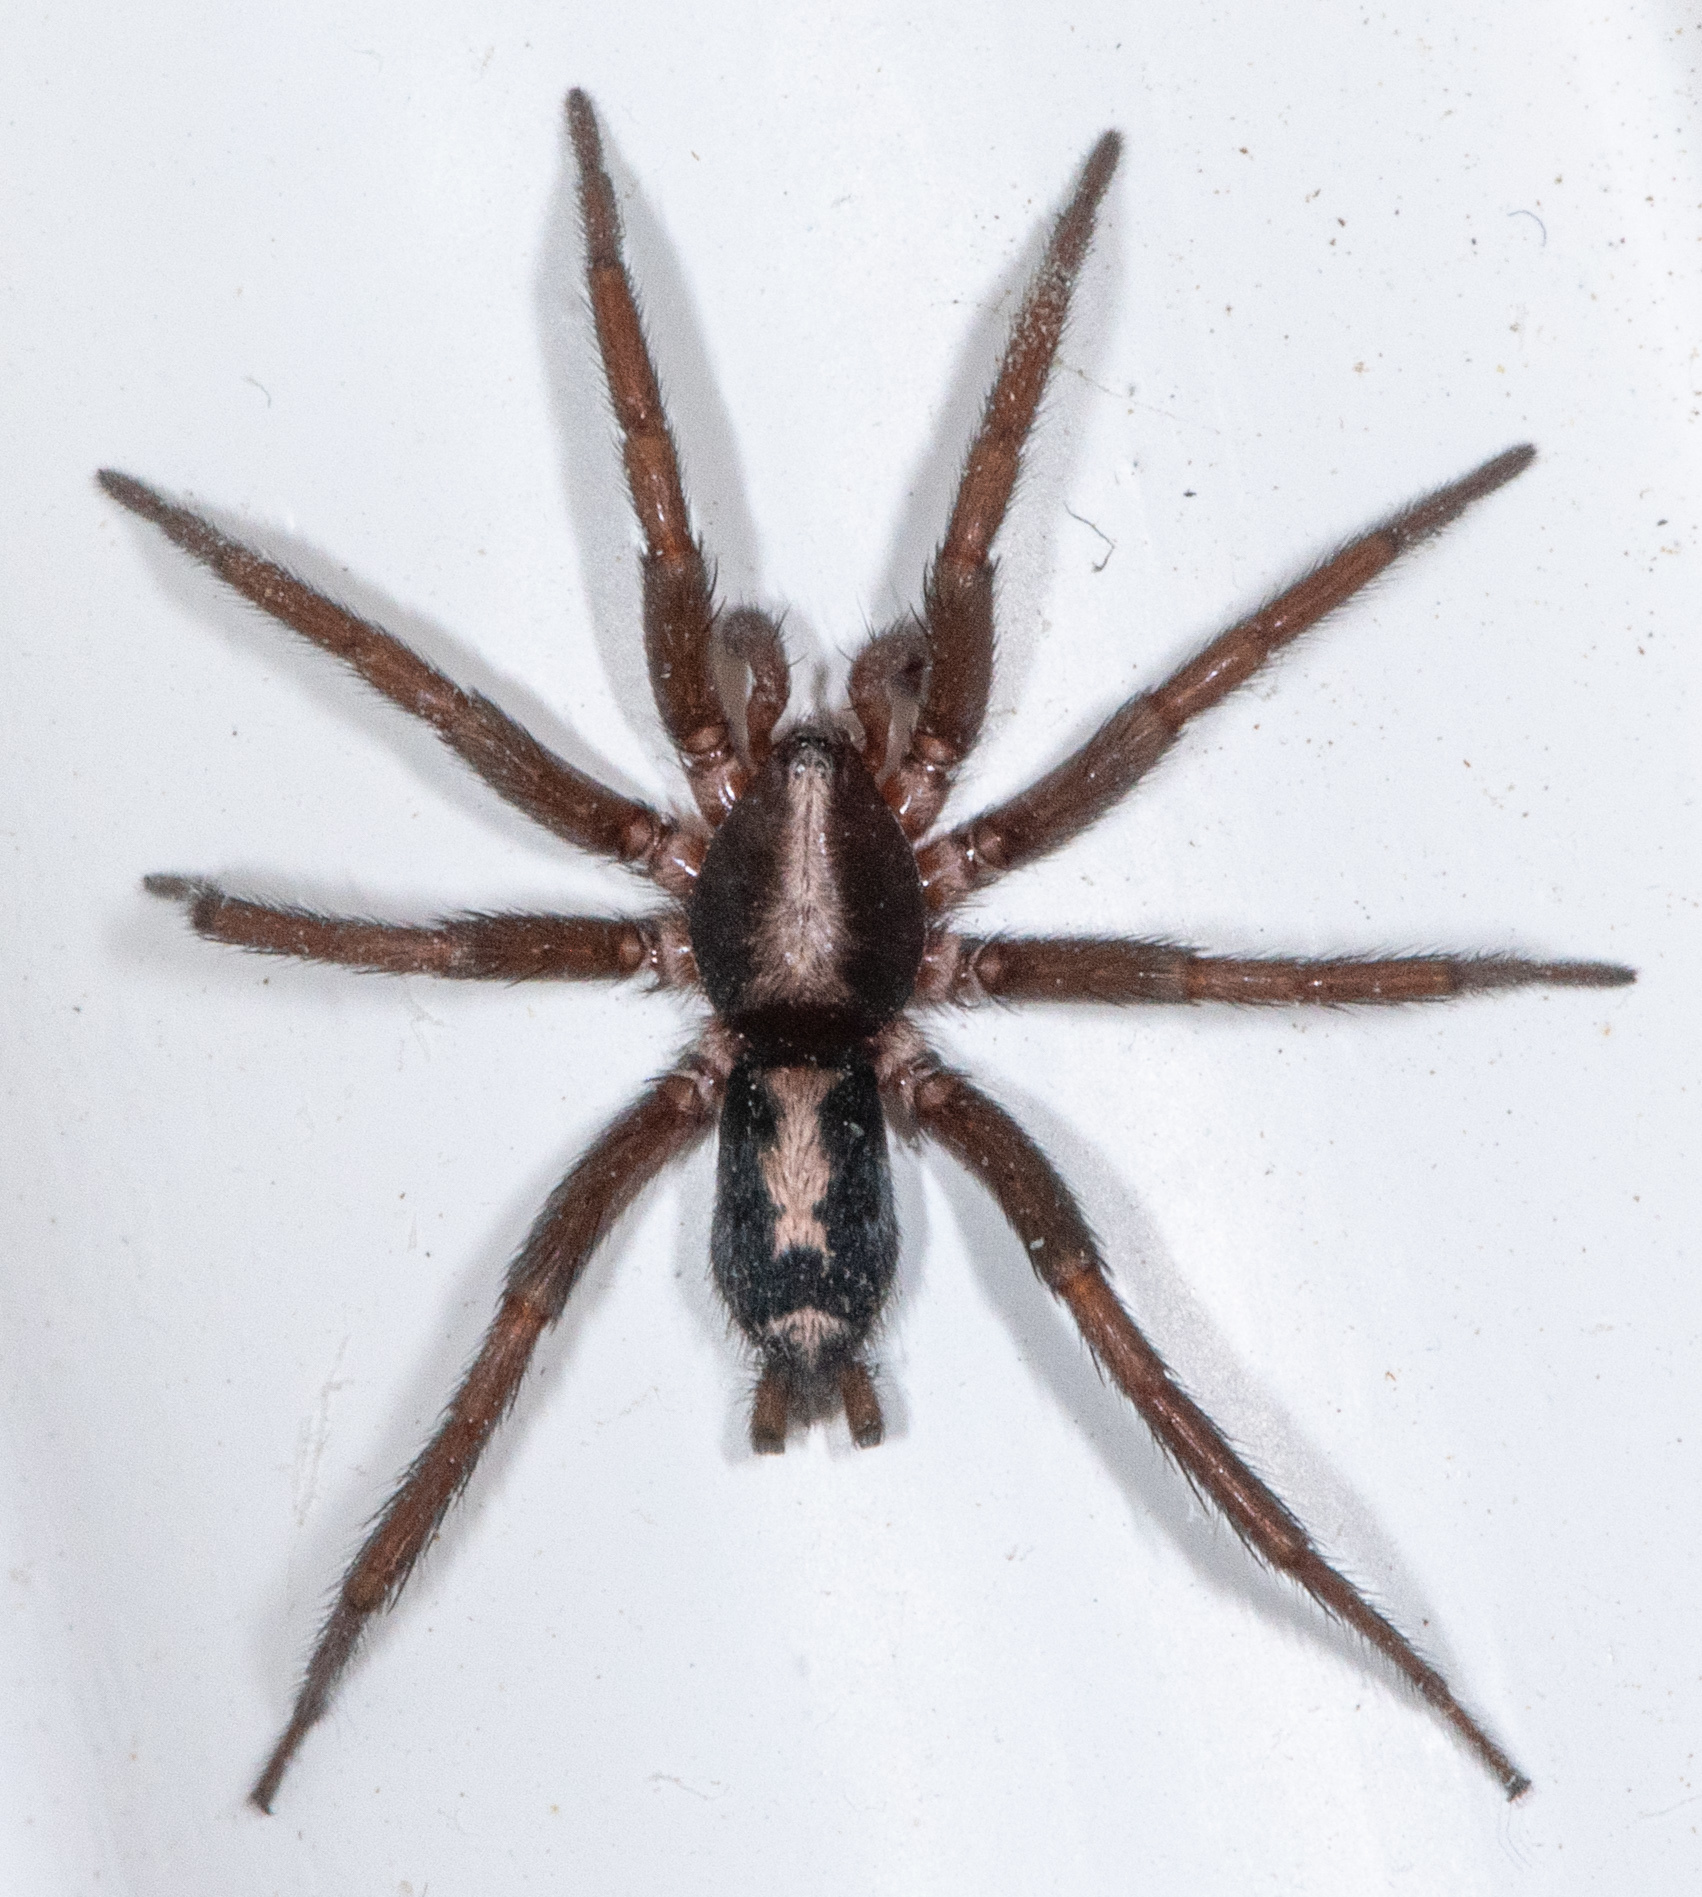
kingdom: Animalia
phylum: Arthropoda
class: Arachnida
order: Araneae
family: Gnaphosidae
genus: Herpyllus
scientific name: Herpyllus propinquus
